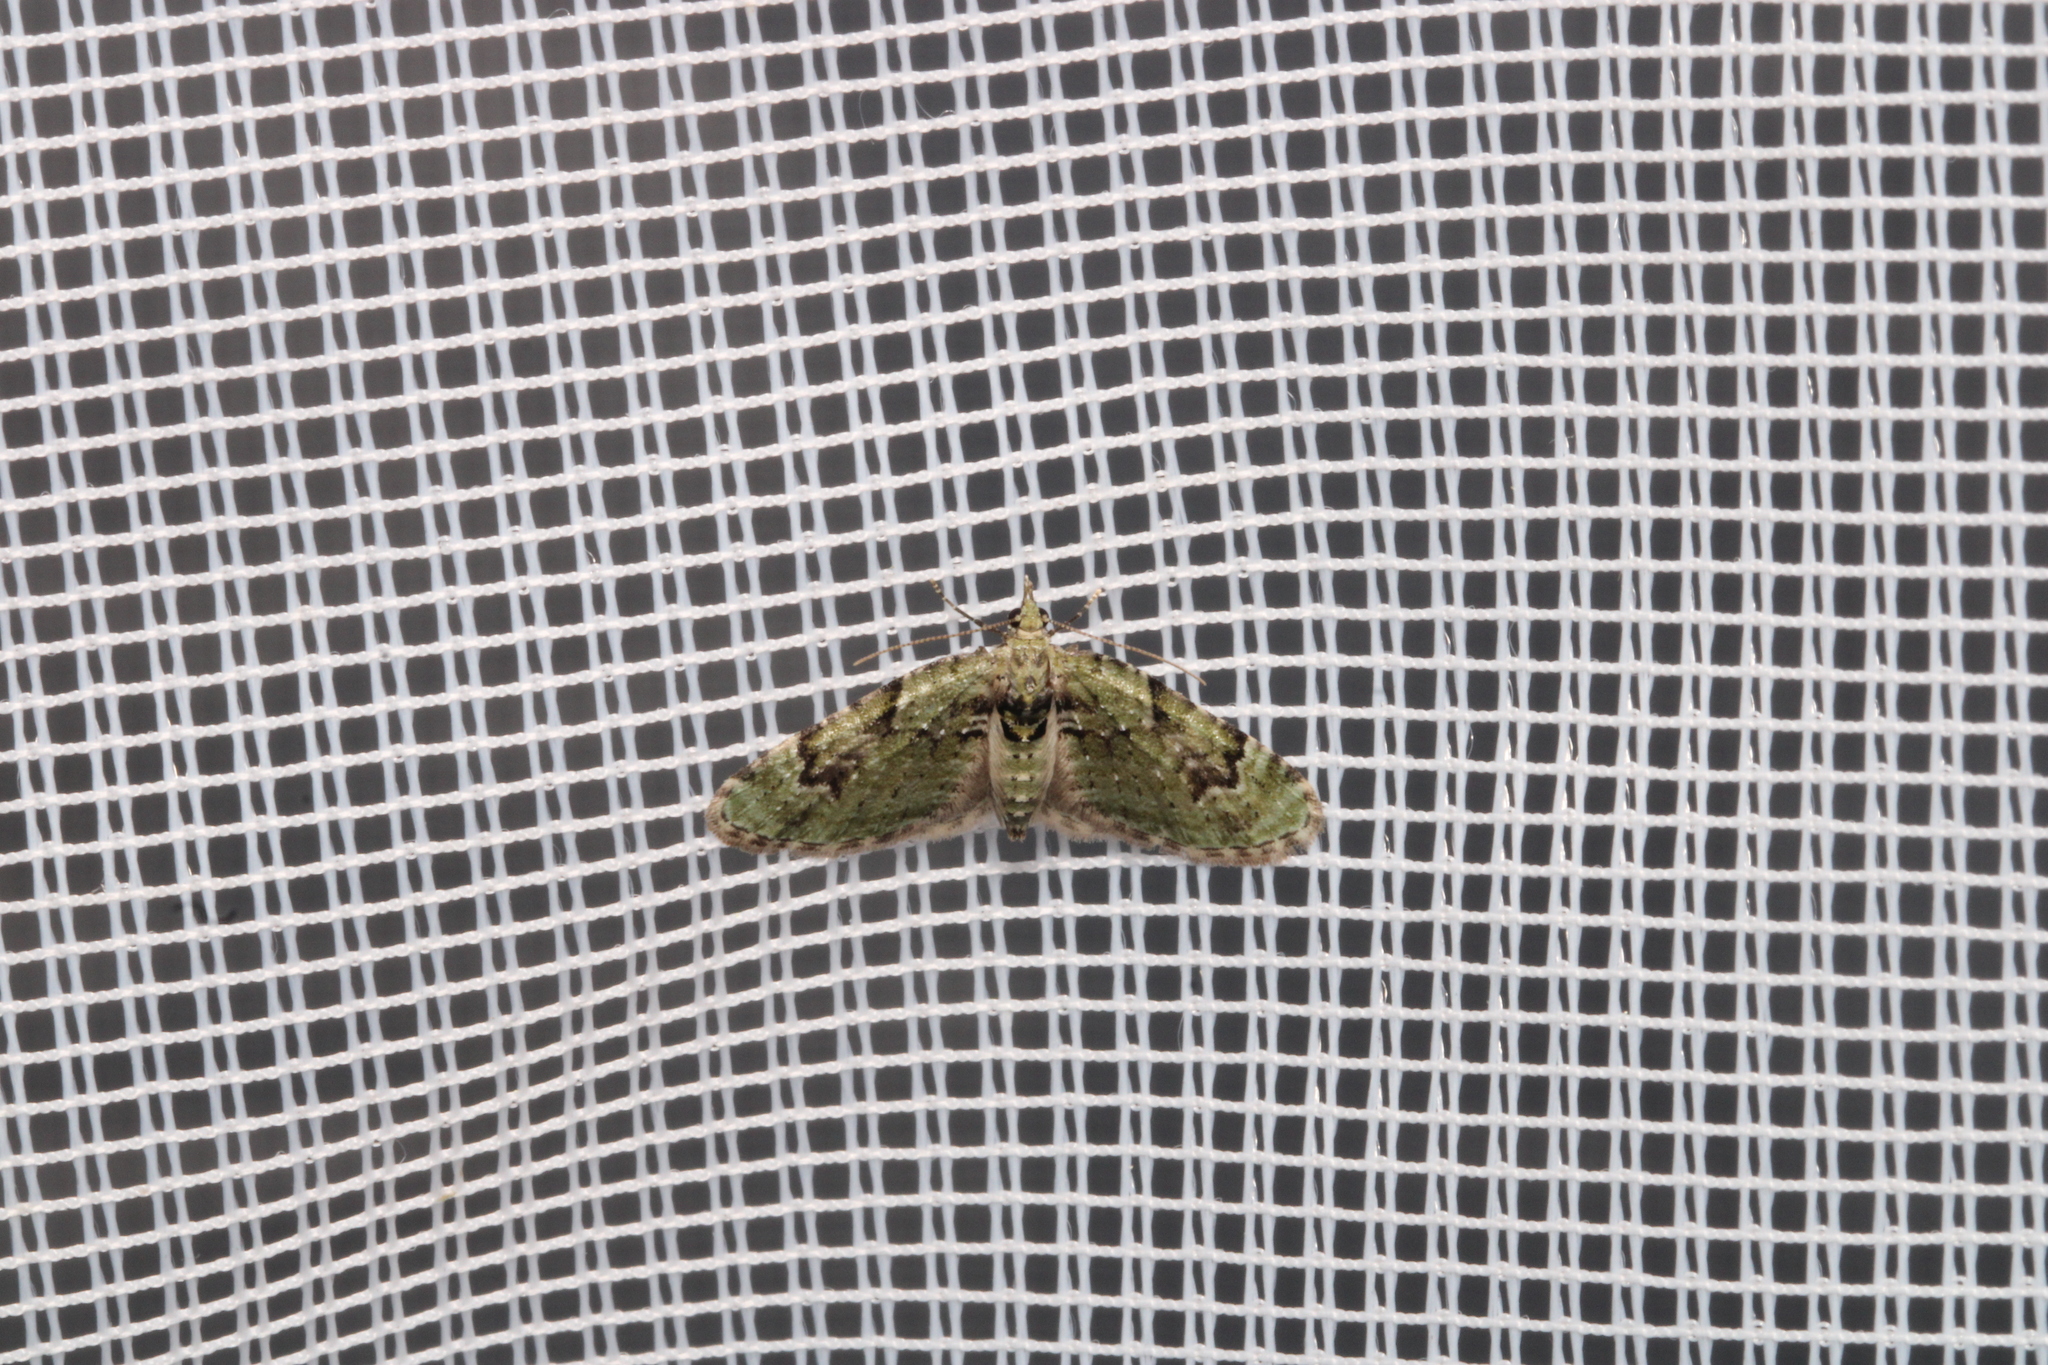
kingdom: Animalia
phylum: Arthropoda
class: Insecta
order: Lepidoptera
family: Geometridae
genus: Chloroclystis
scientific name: Chloroclystis v-ata
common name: V-pug
